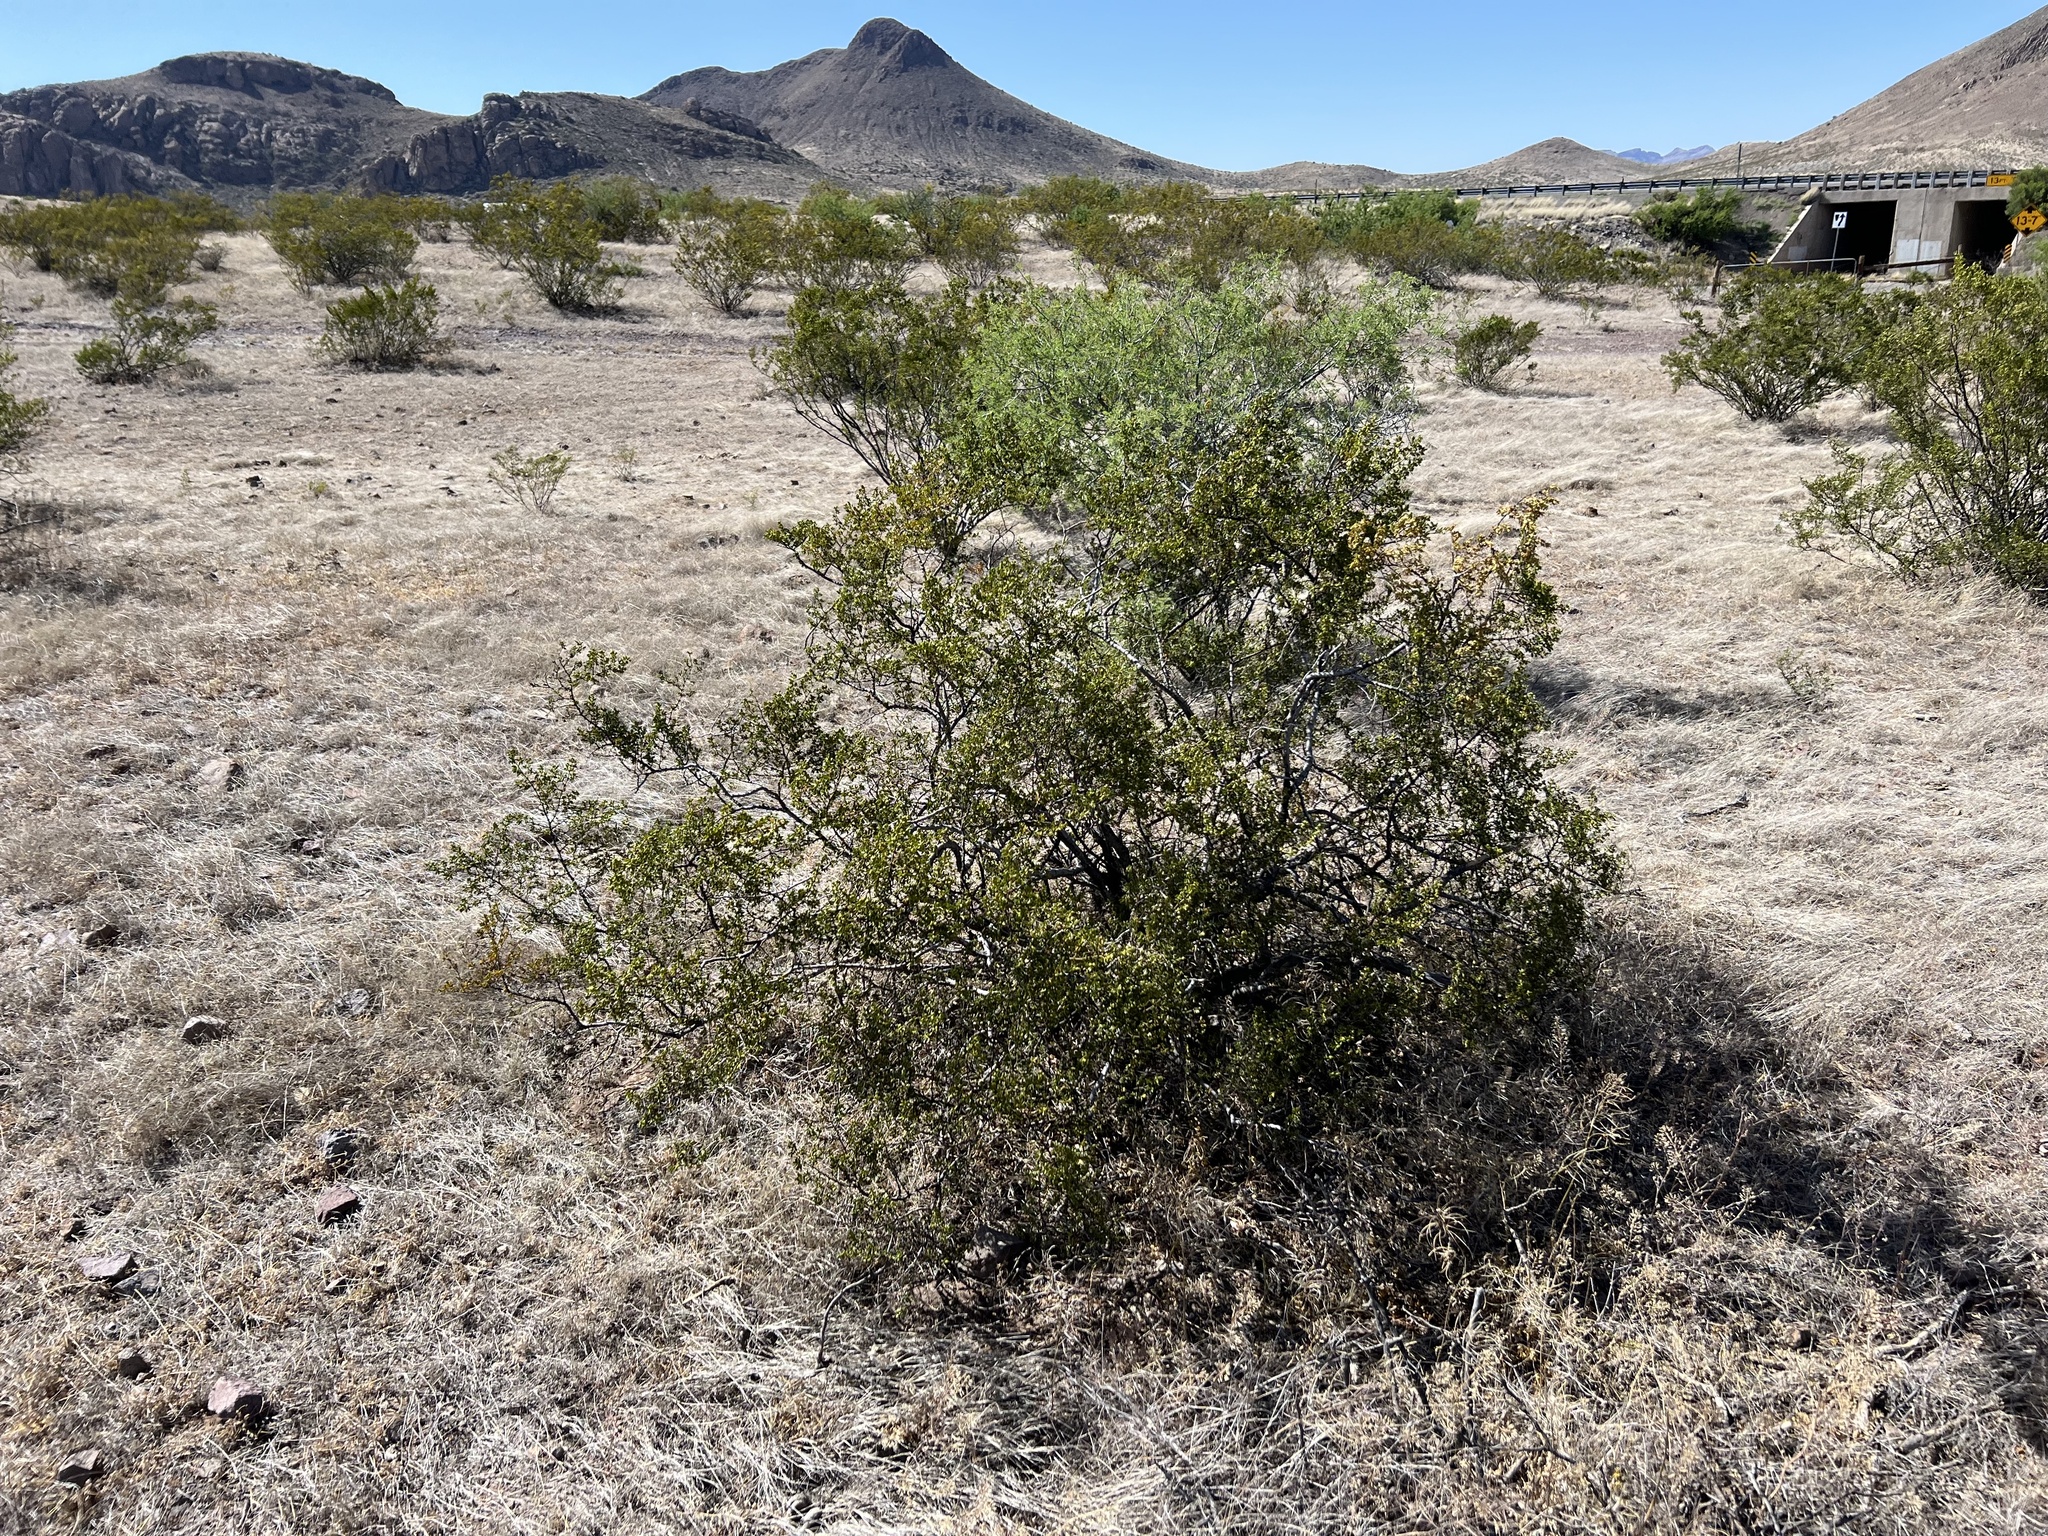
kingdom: Plantae
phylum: Tracheophyta
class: Magnoliopsida
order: Zygophyllales
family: Zygophyllaceae
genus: Larrea
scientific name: Larrea tridentata
